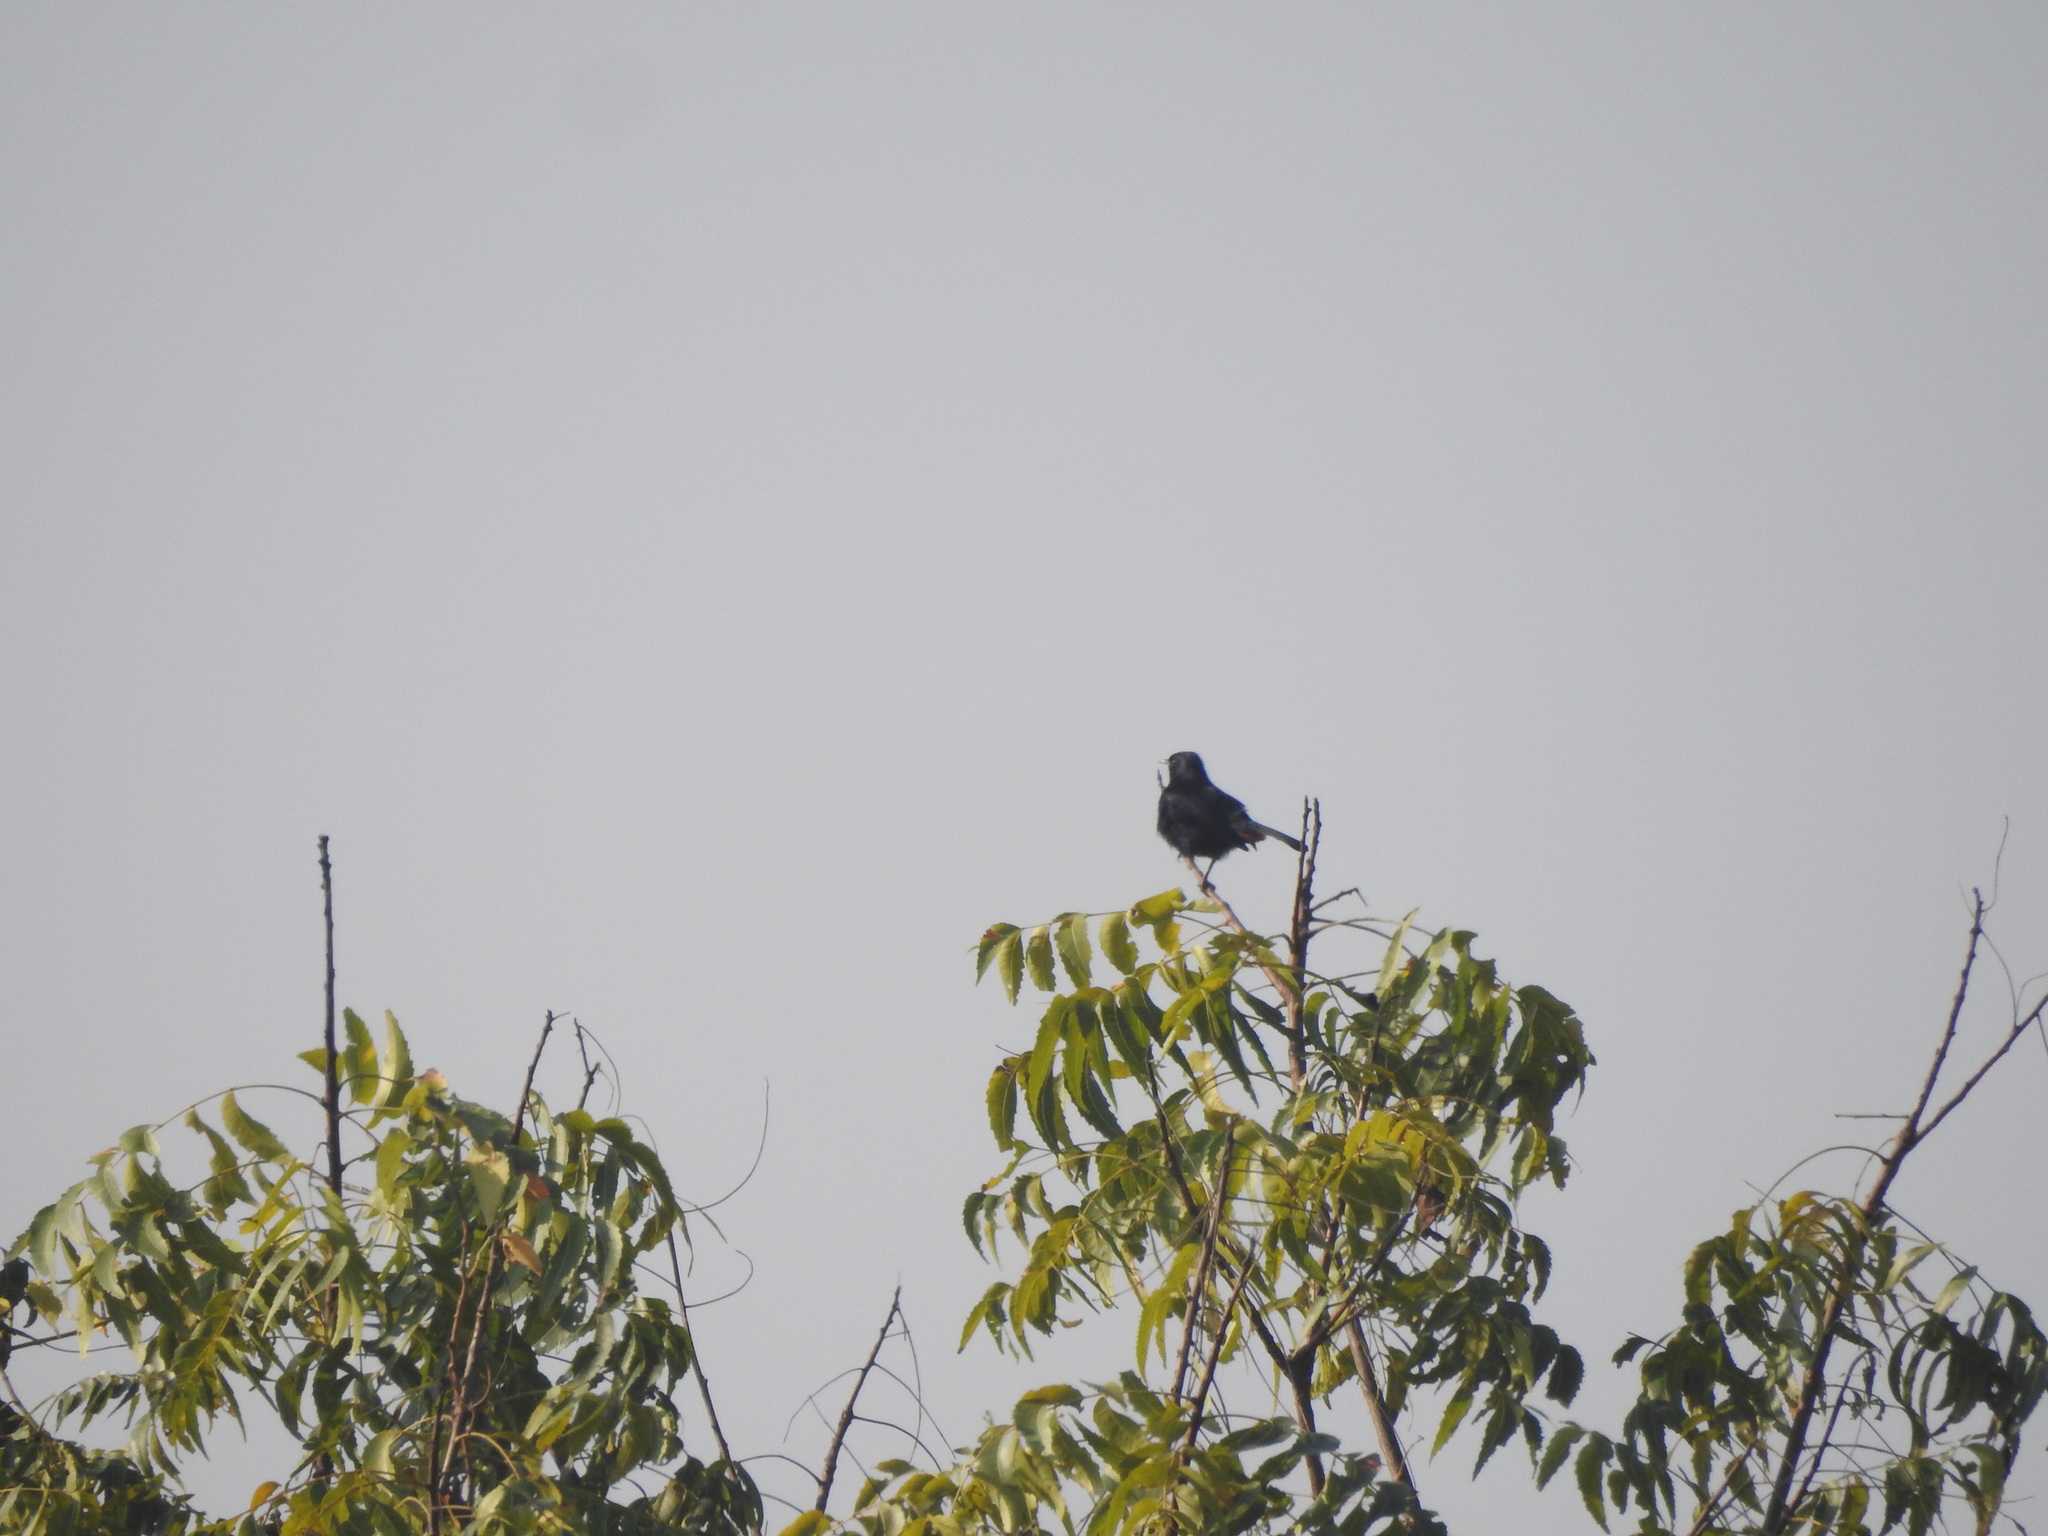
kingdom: Animalia
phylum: Chordata
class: Aves
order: Passeriformes
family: Muscicapidae
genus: Saxicoloides
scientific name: Saxicoloides fulicatus
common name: Indian robin
